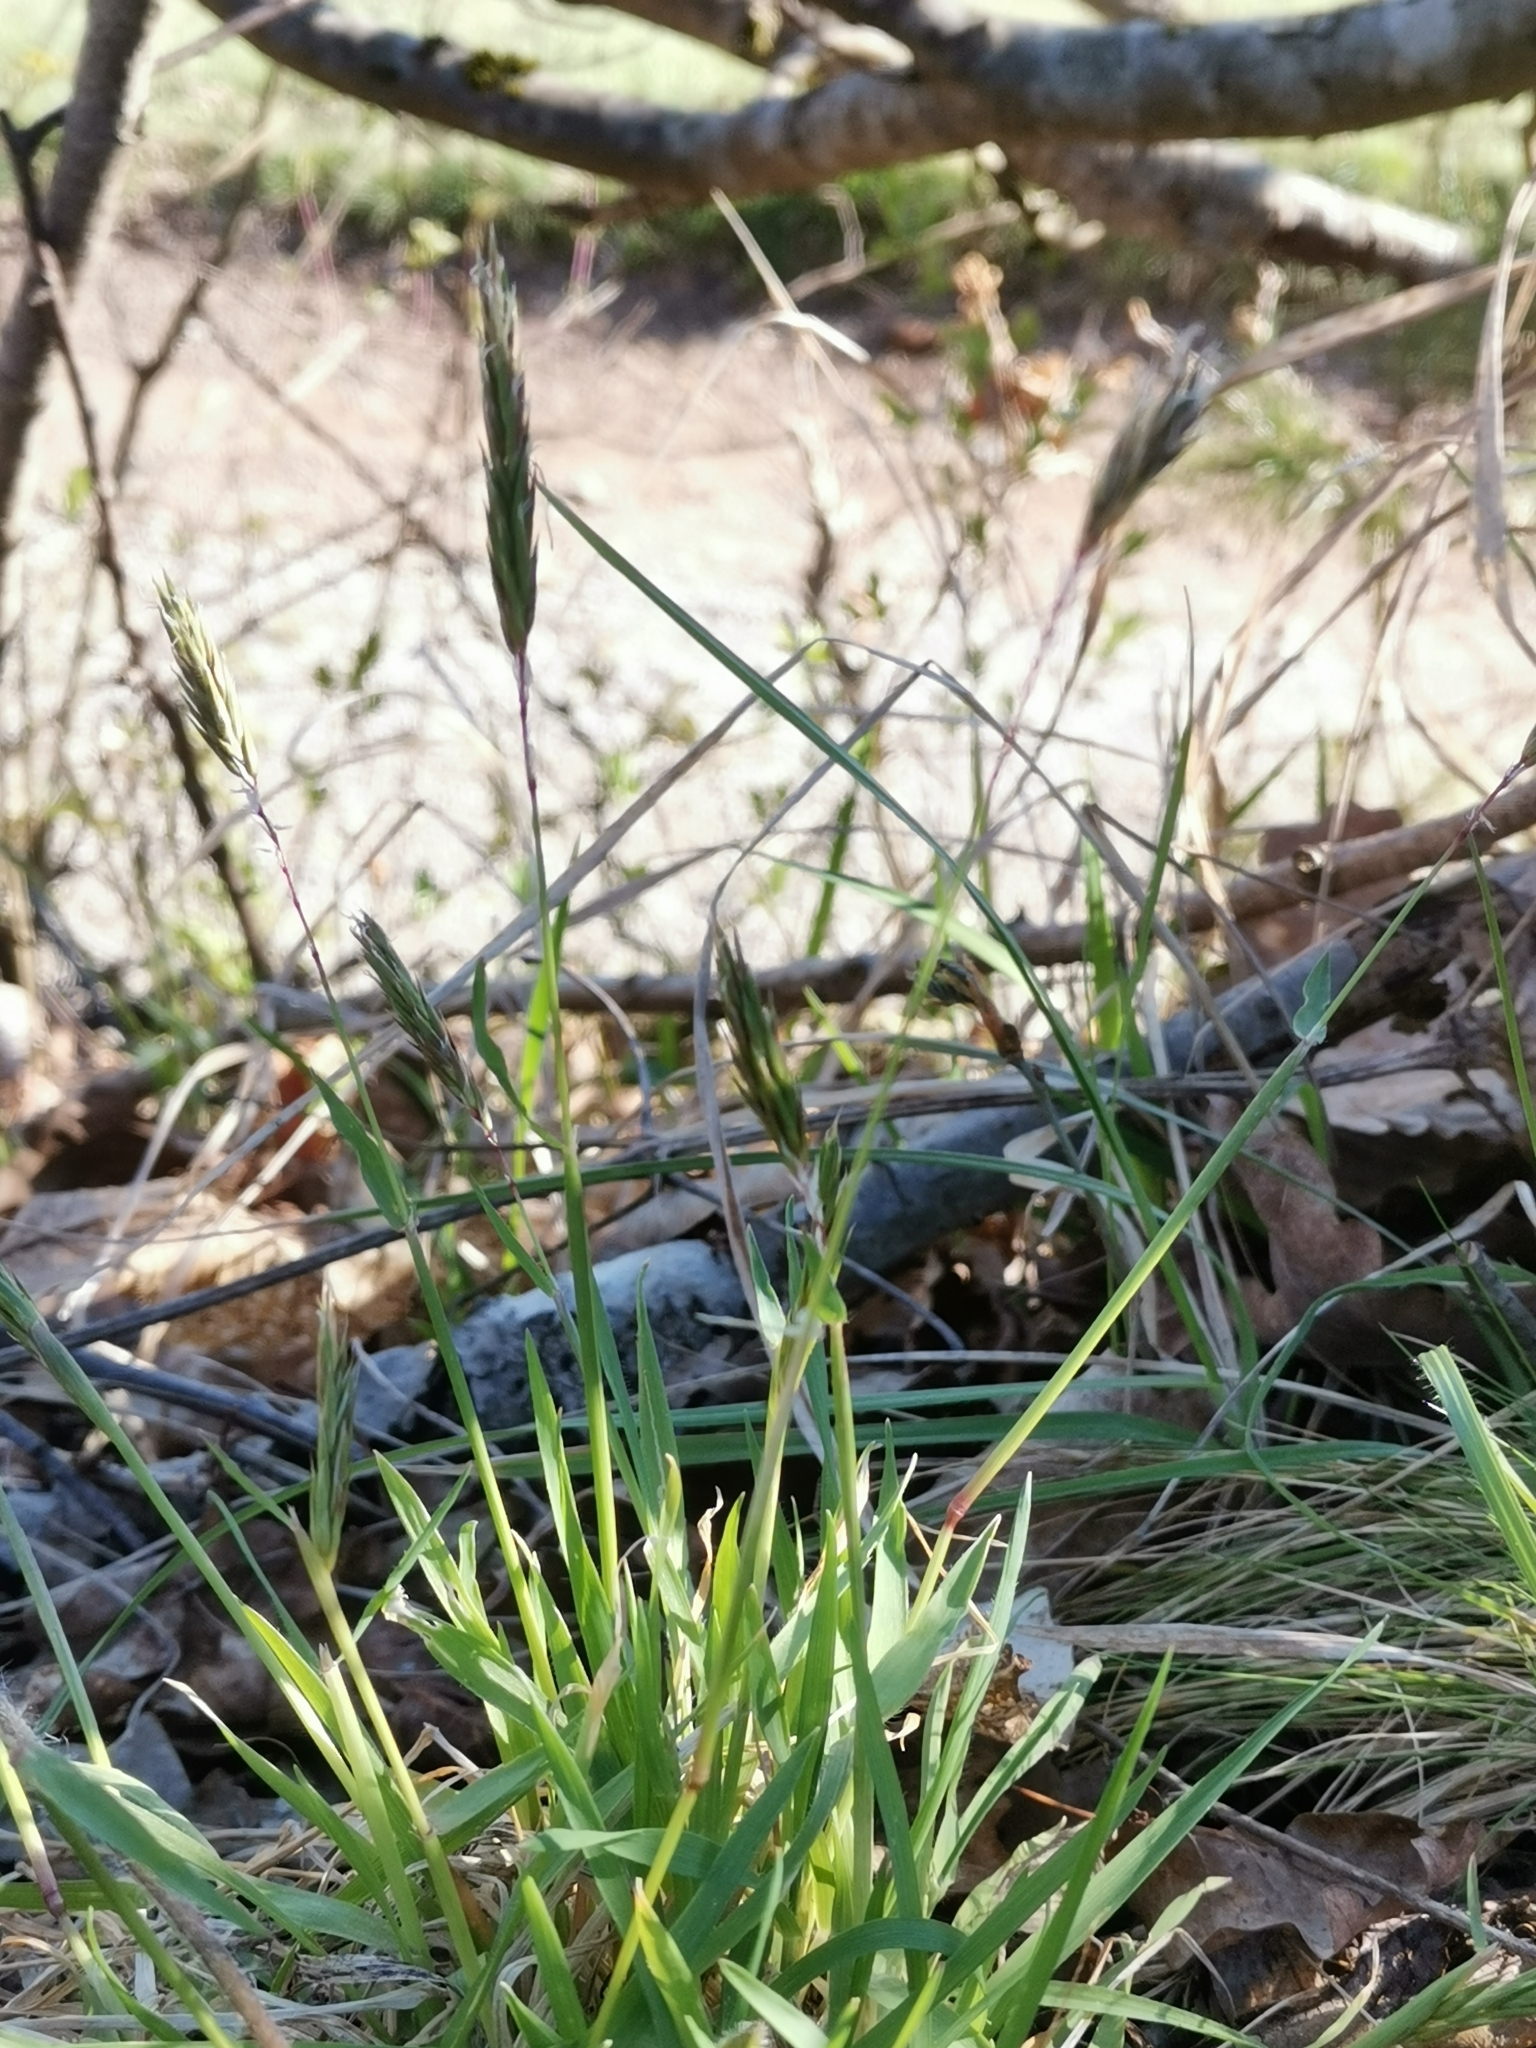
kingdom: Plantae
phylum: Tracheophyta
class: Liliopsida
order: Poales
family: Poaceae
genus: Anthoxanthum
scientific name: Anthoxanthum odoratum
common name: Sweet vernalgrass
